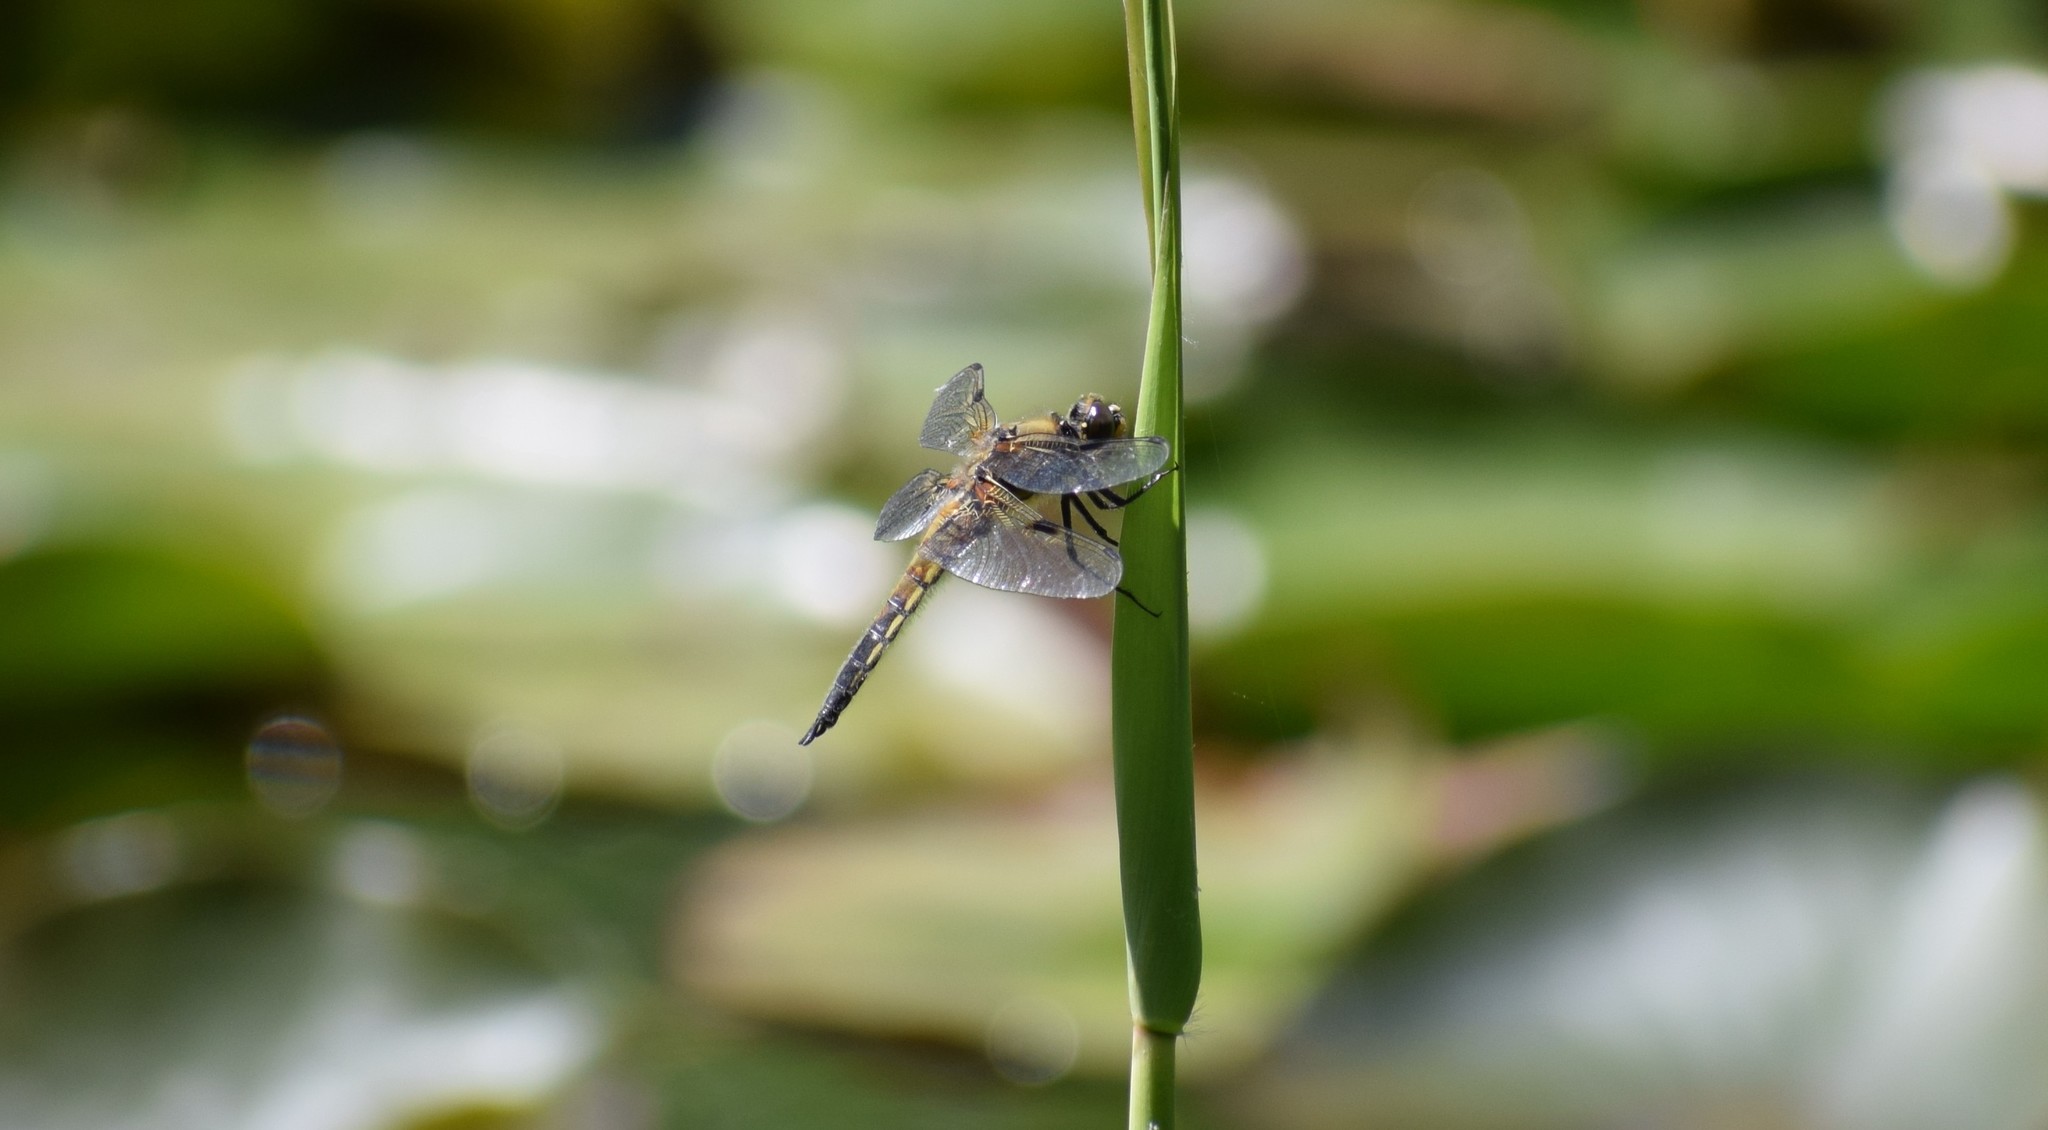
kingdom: Animalia
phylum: Arthropoda
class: Insecta
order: Odonata
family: Libellulidae
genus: Libellula
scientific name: Libellula quadrimaculata
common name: Four-spotted chaser
